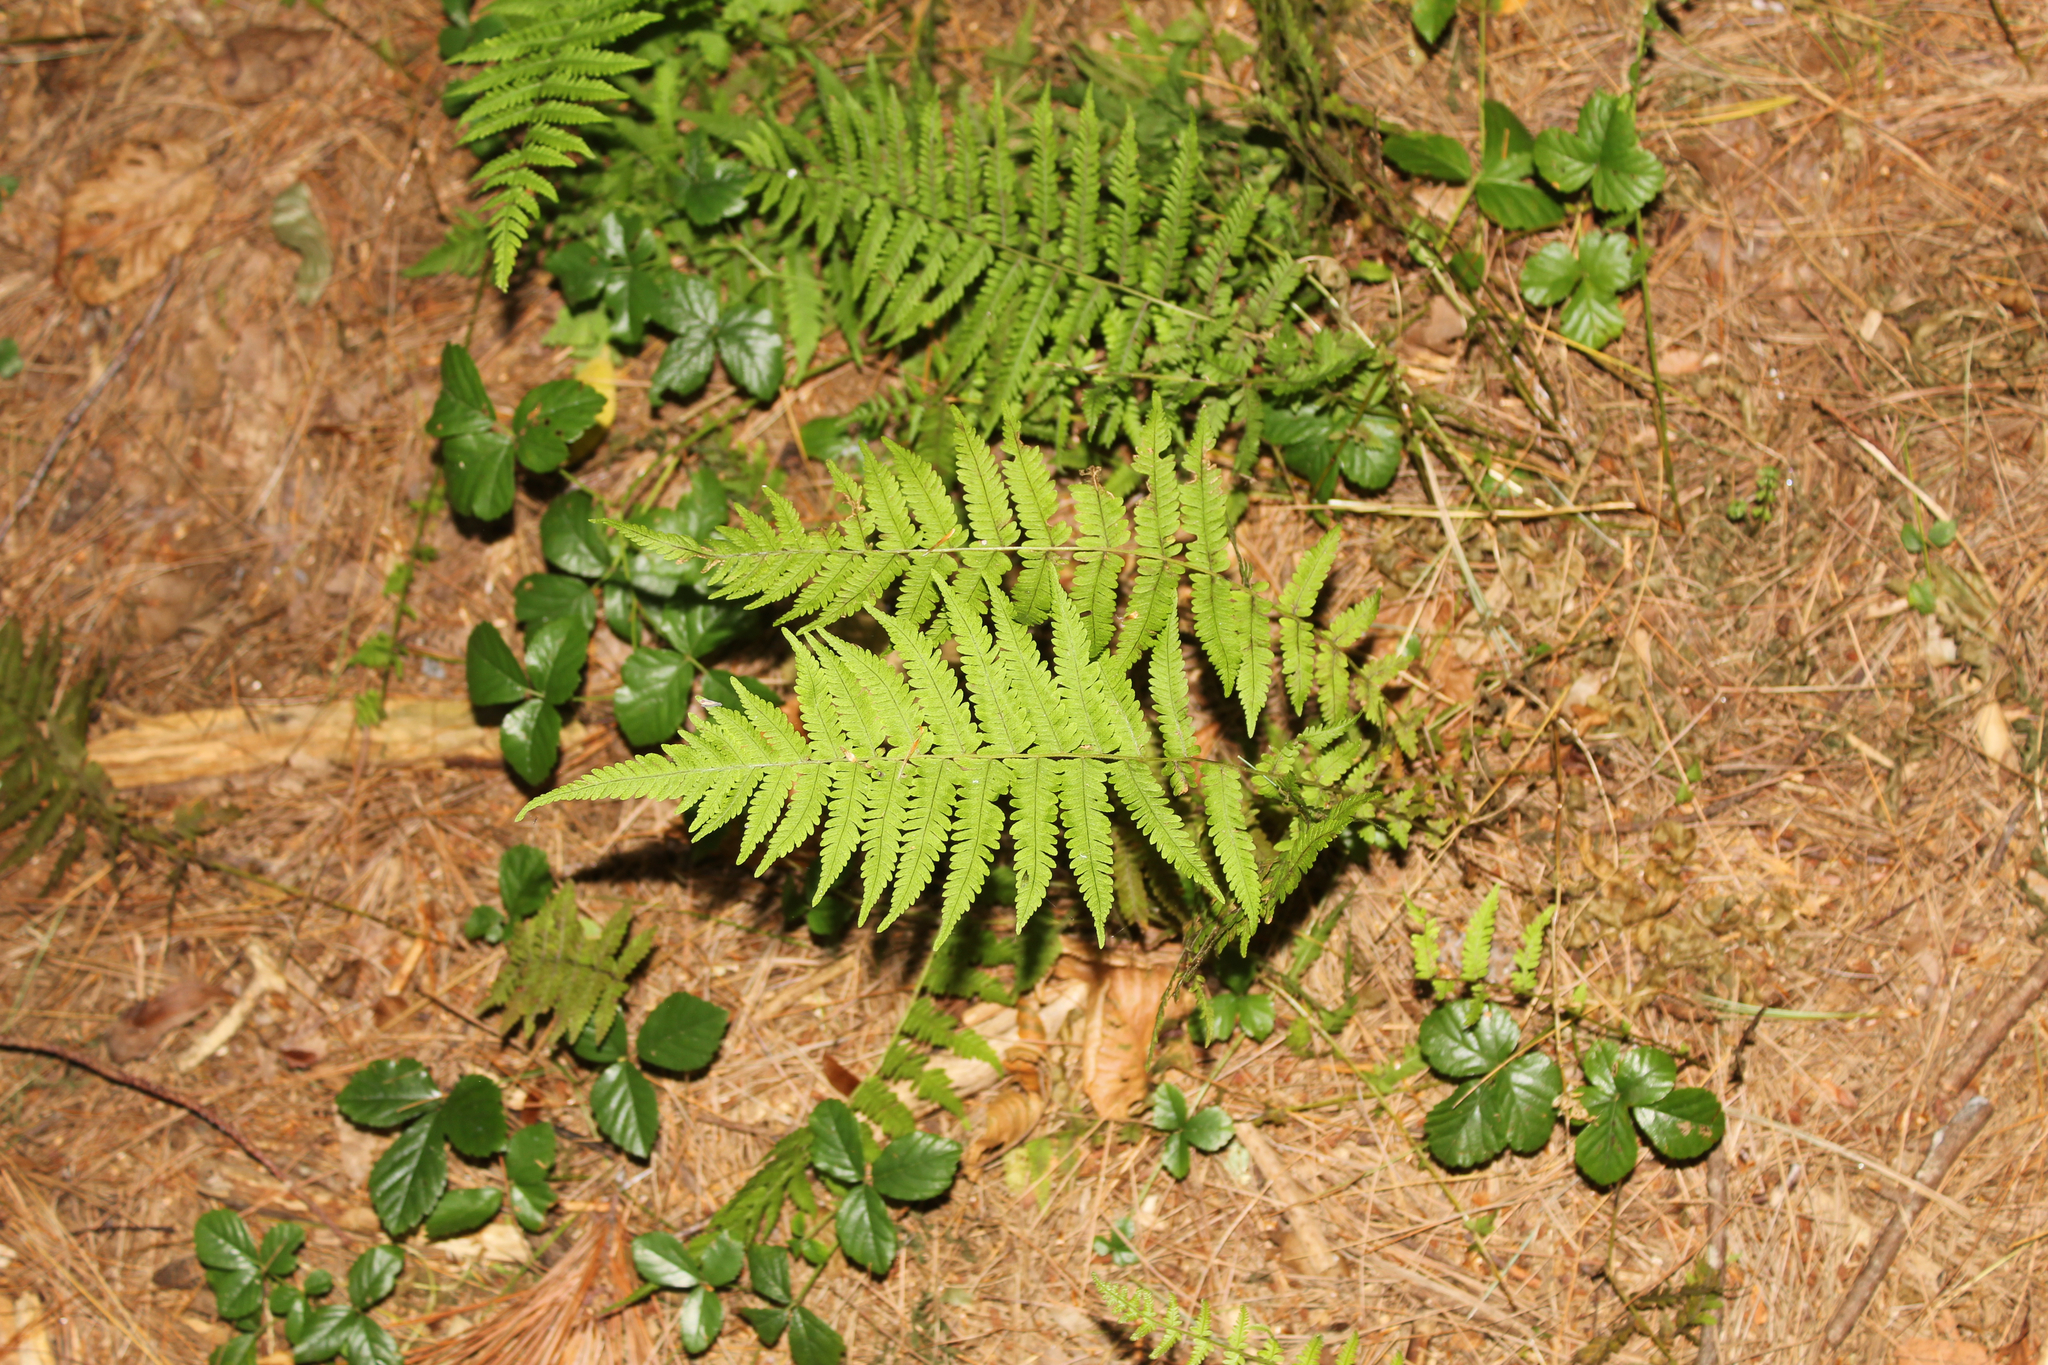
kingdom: Plantae
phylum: Tracheophyta
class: Polypodiopsida
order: Polypodiales
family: Thelypteridaceae
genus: Amauropelta
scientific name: Amauropelta noveboracensis
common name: New york fern
